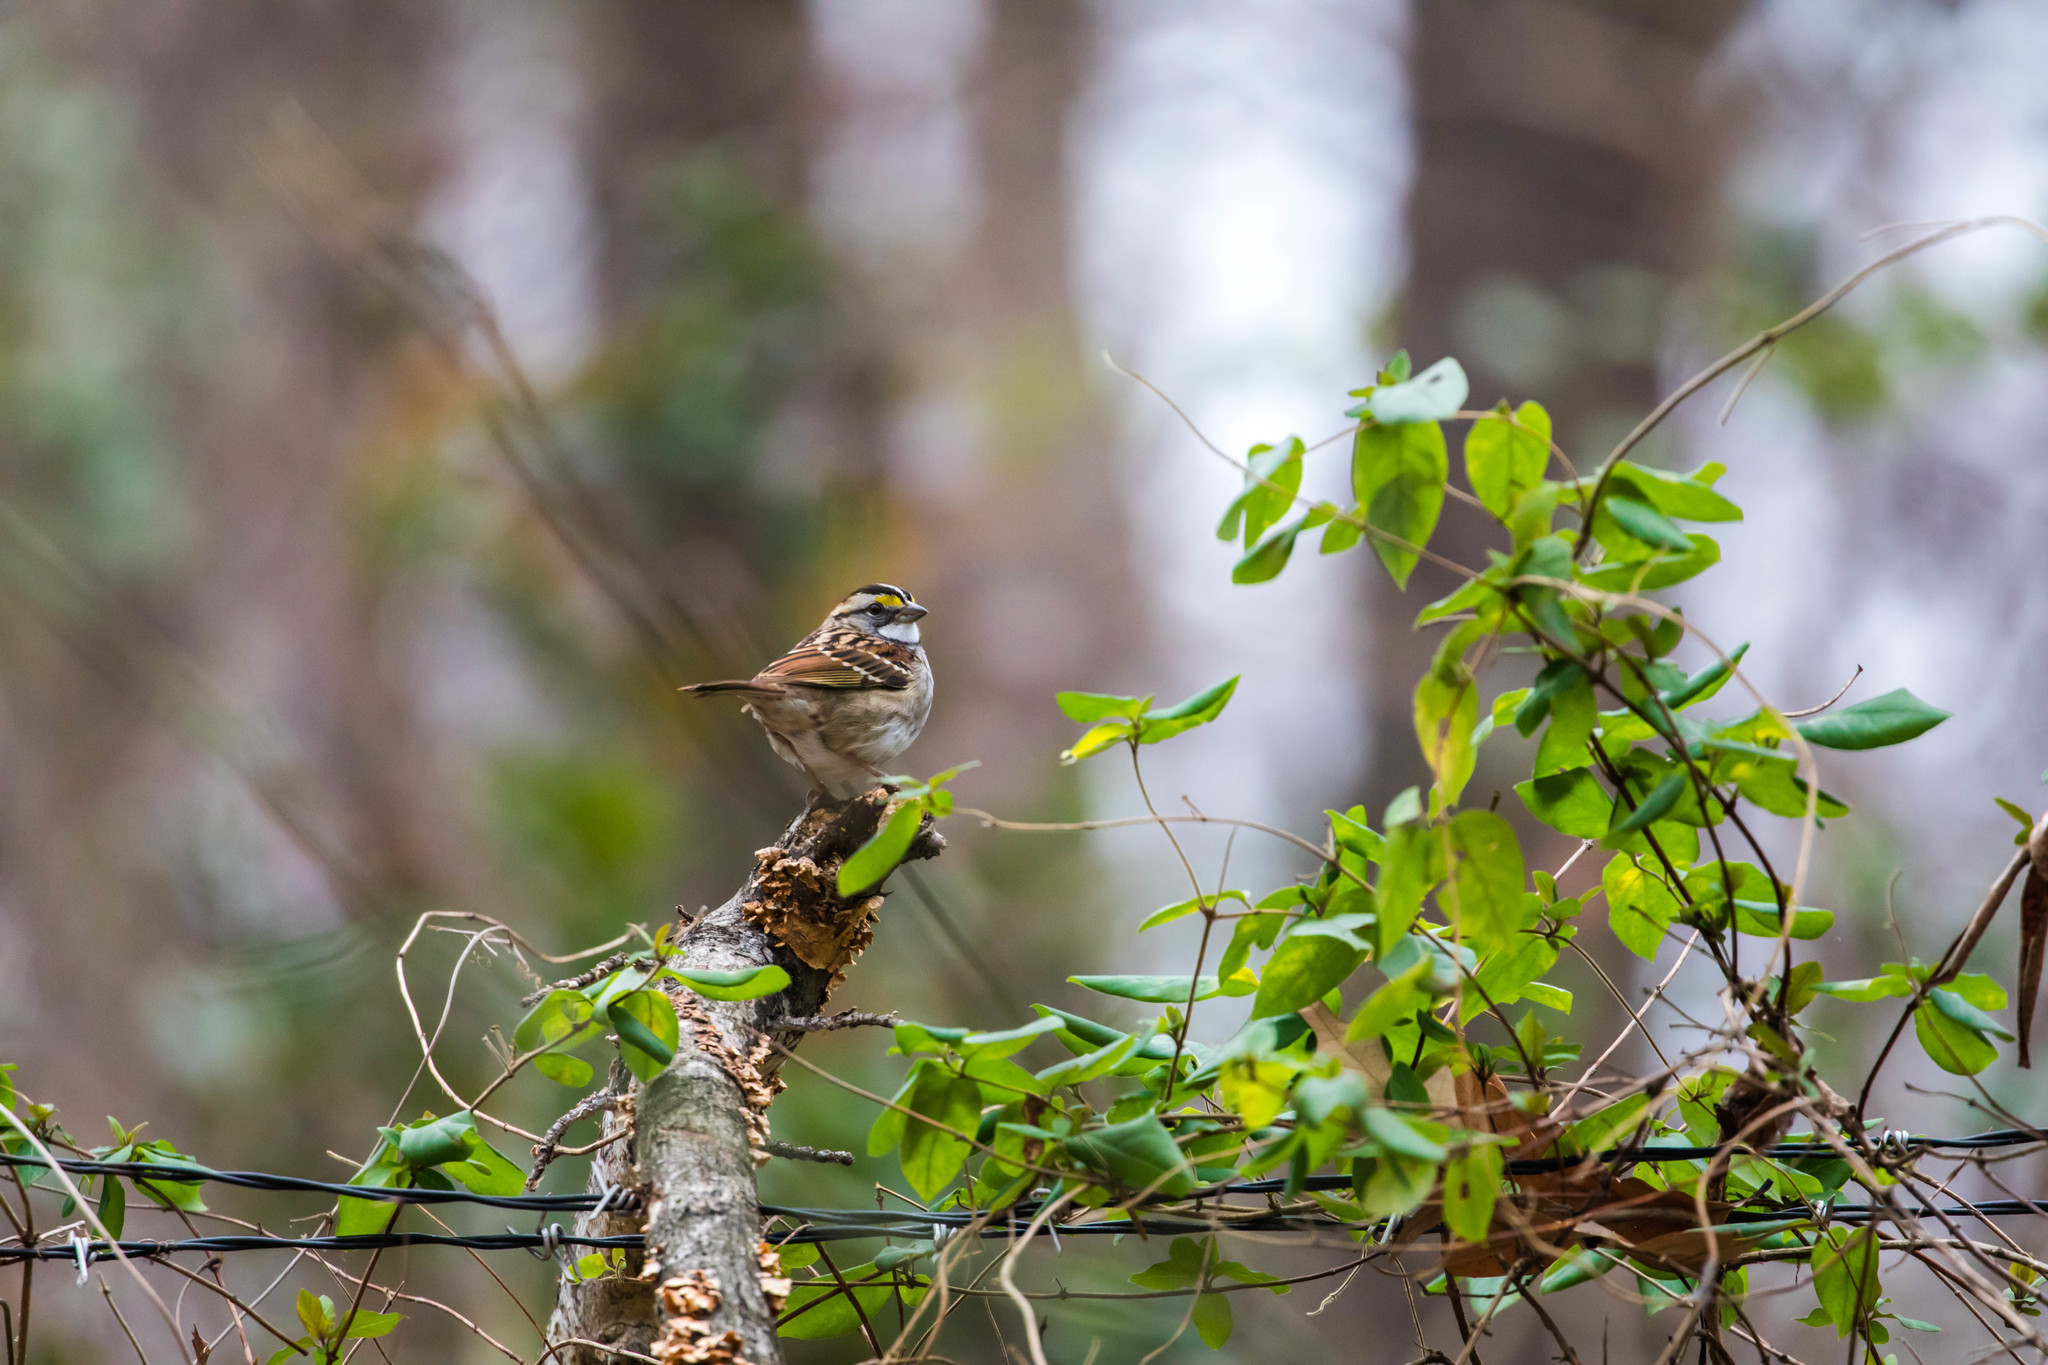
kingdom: Animalia
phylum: Chordata
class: Aves
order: Passeriformes
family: Passerellidae
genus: Zonotrichia
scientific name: Zonotrichia albicollis
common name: White-throated sparrow
